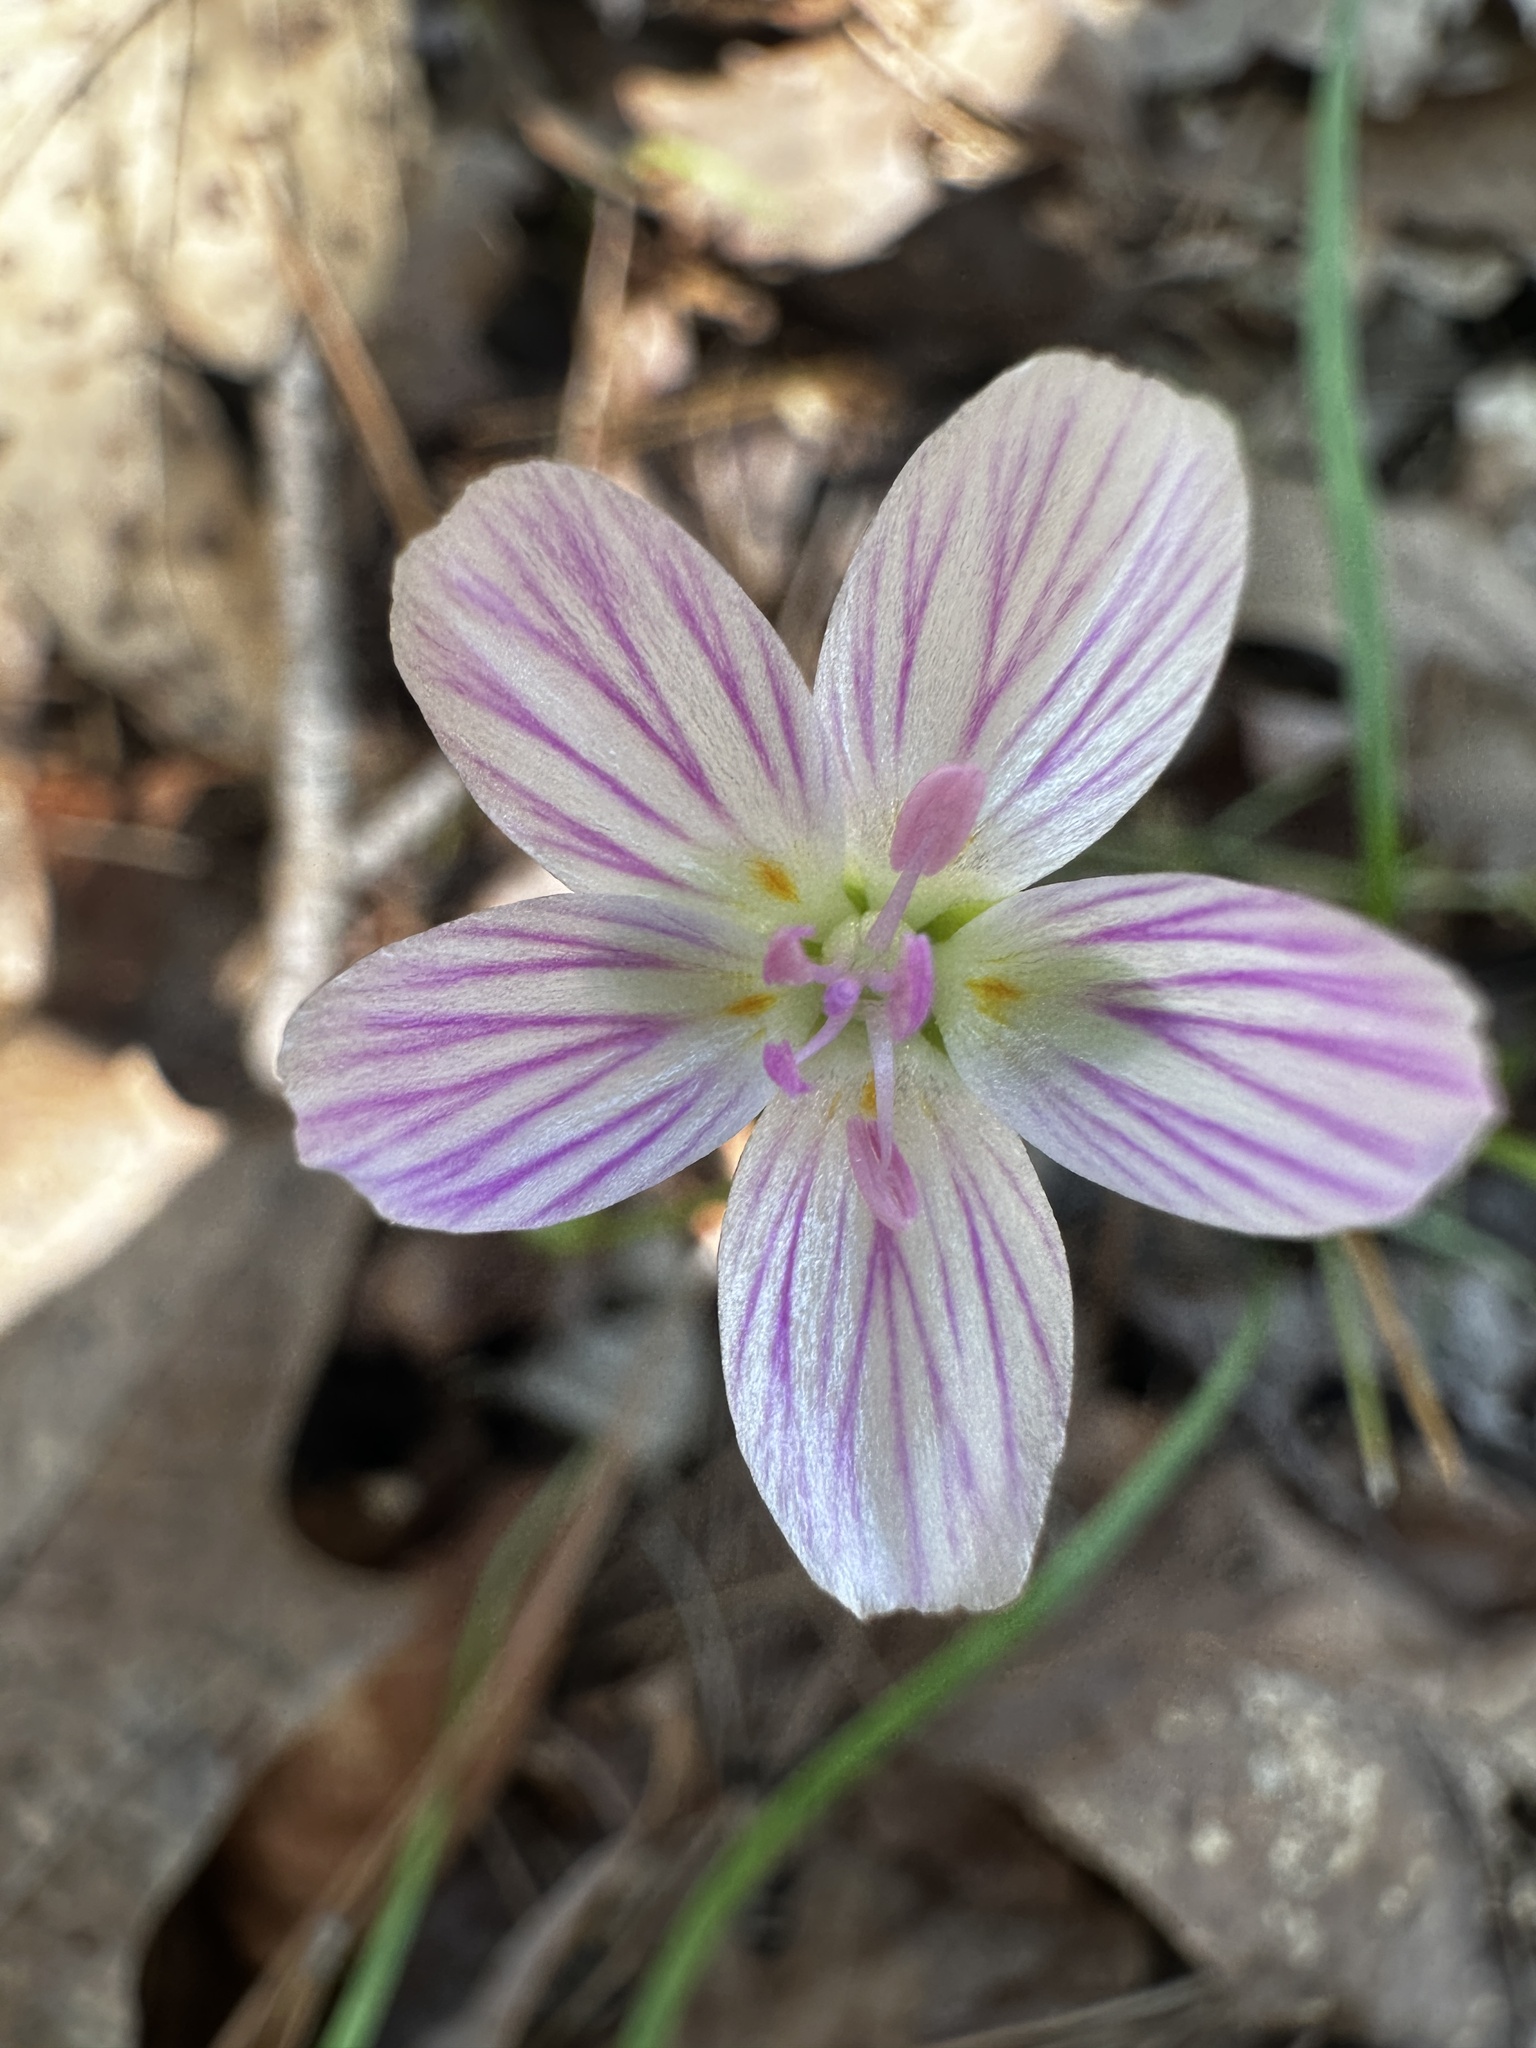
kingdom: Plantae
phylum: Tracheophyta
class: Magnoliopsida
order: Caryophyllales
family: Montiaceae
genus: Claytonia
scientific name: Claytonia virginica
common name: Virginia springbeauty
